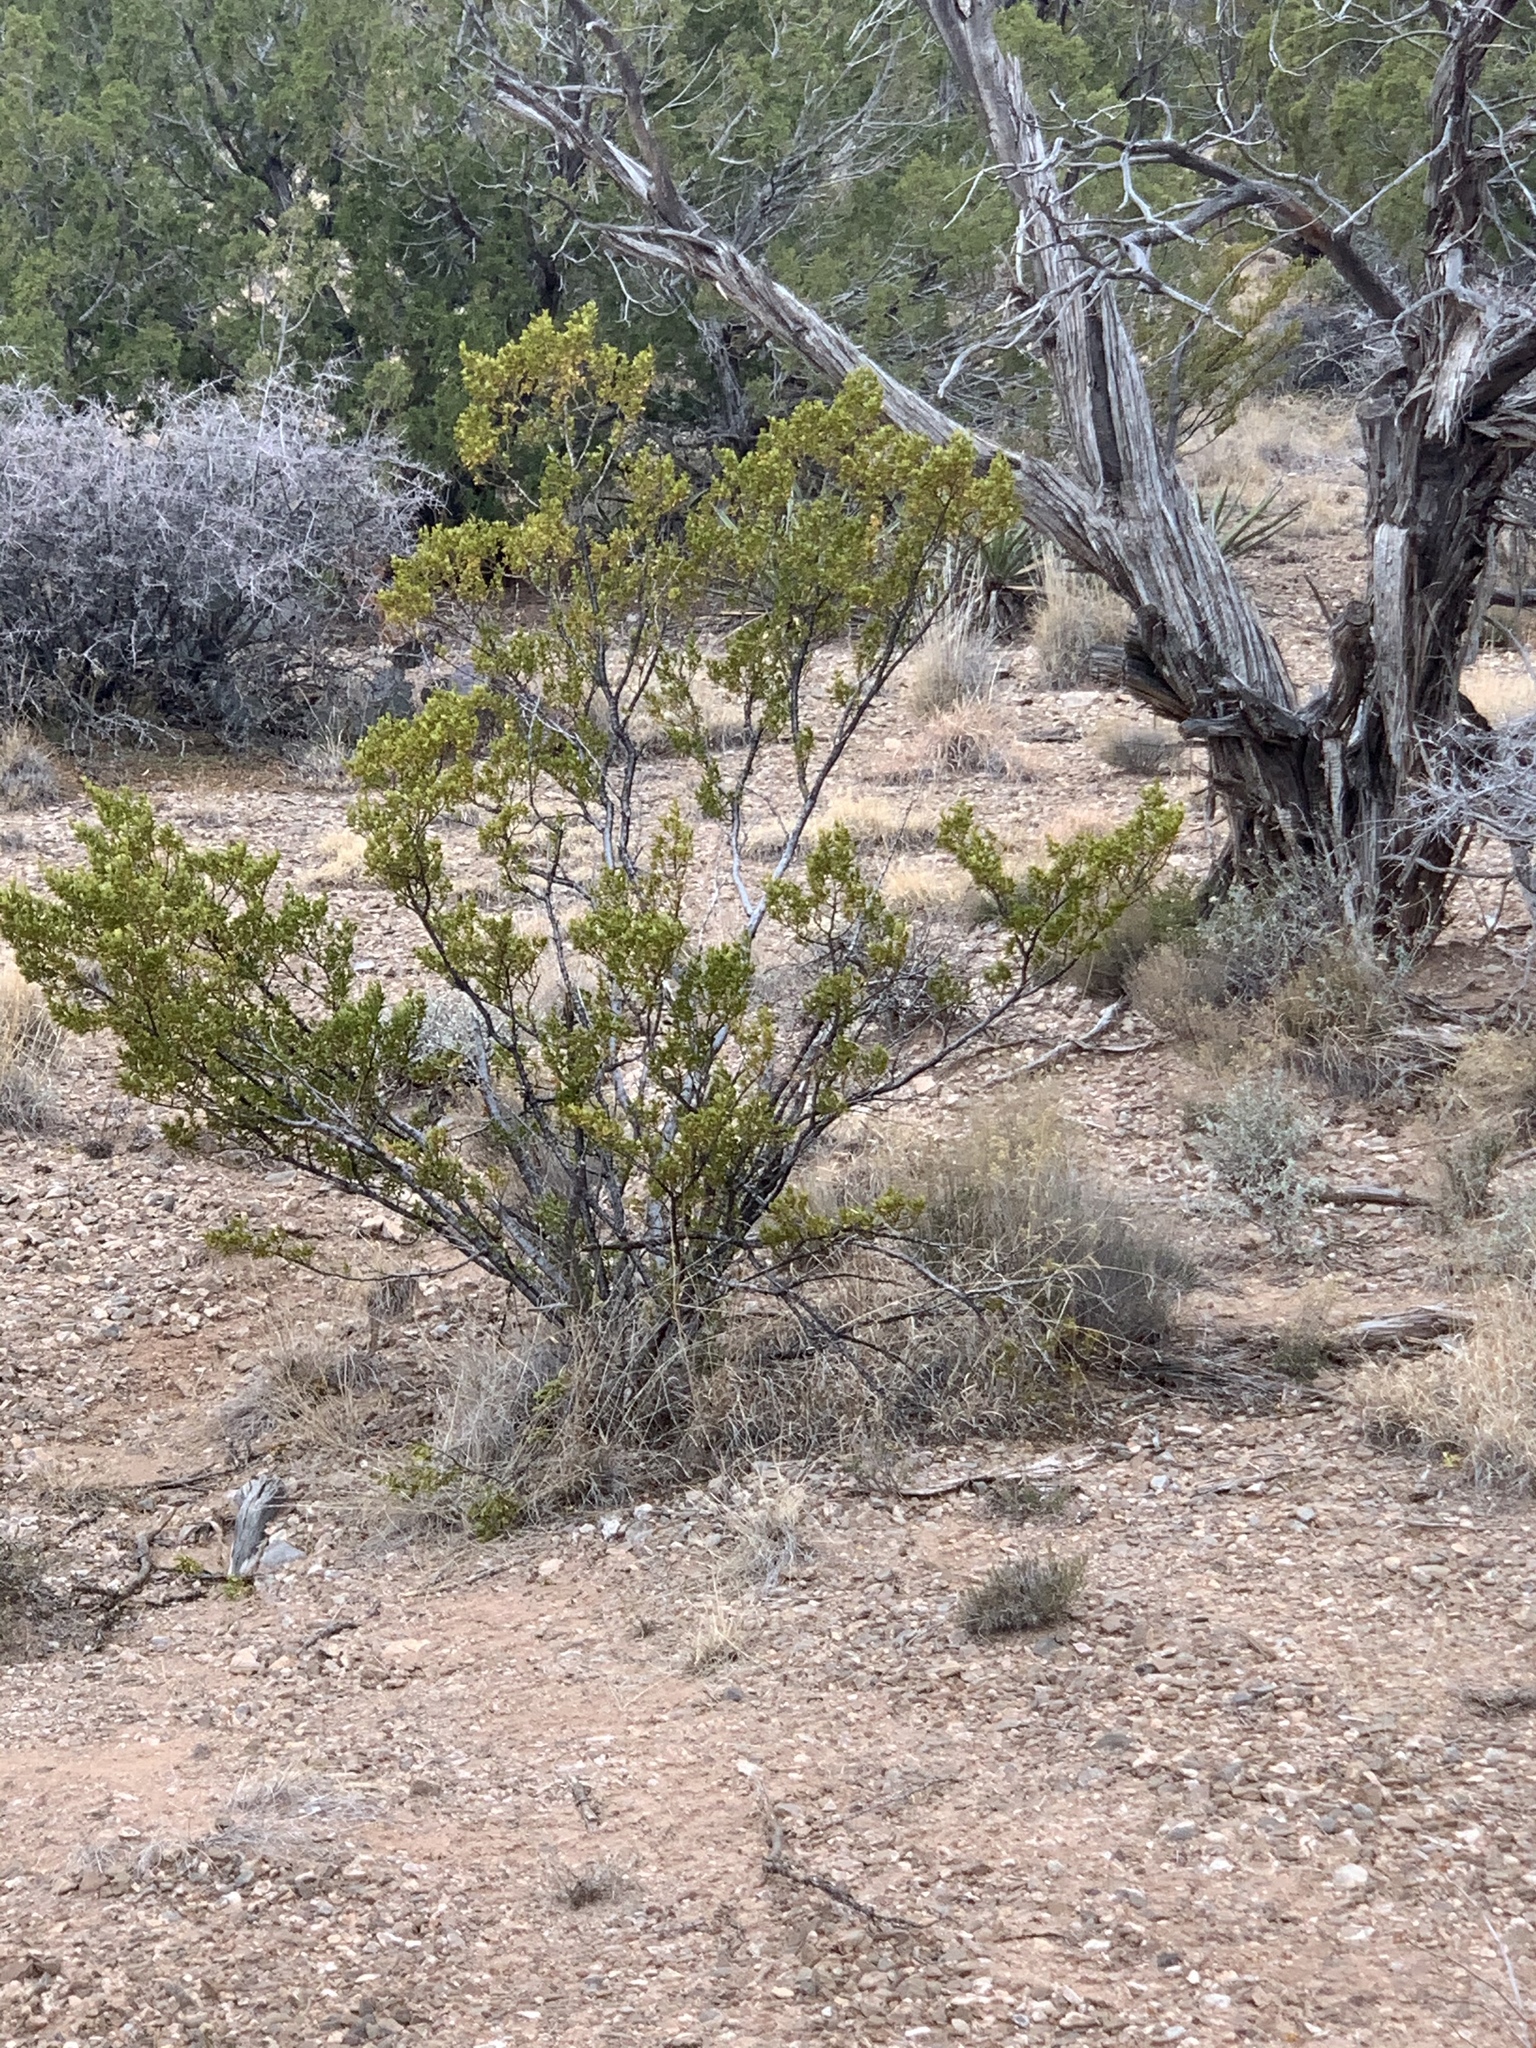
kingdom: Plantae
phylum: Tracheophyta
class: Magnoliopsida
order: Zygophyllales
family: Zygophyllaceae
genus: Larrea
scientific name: Larrea tridentata
